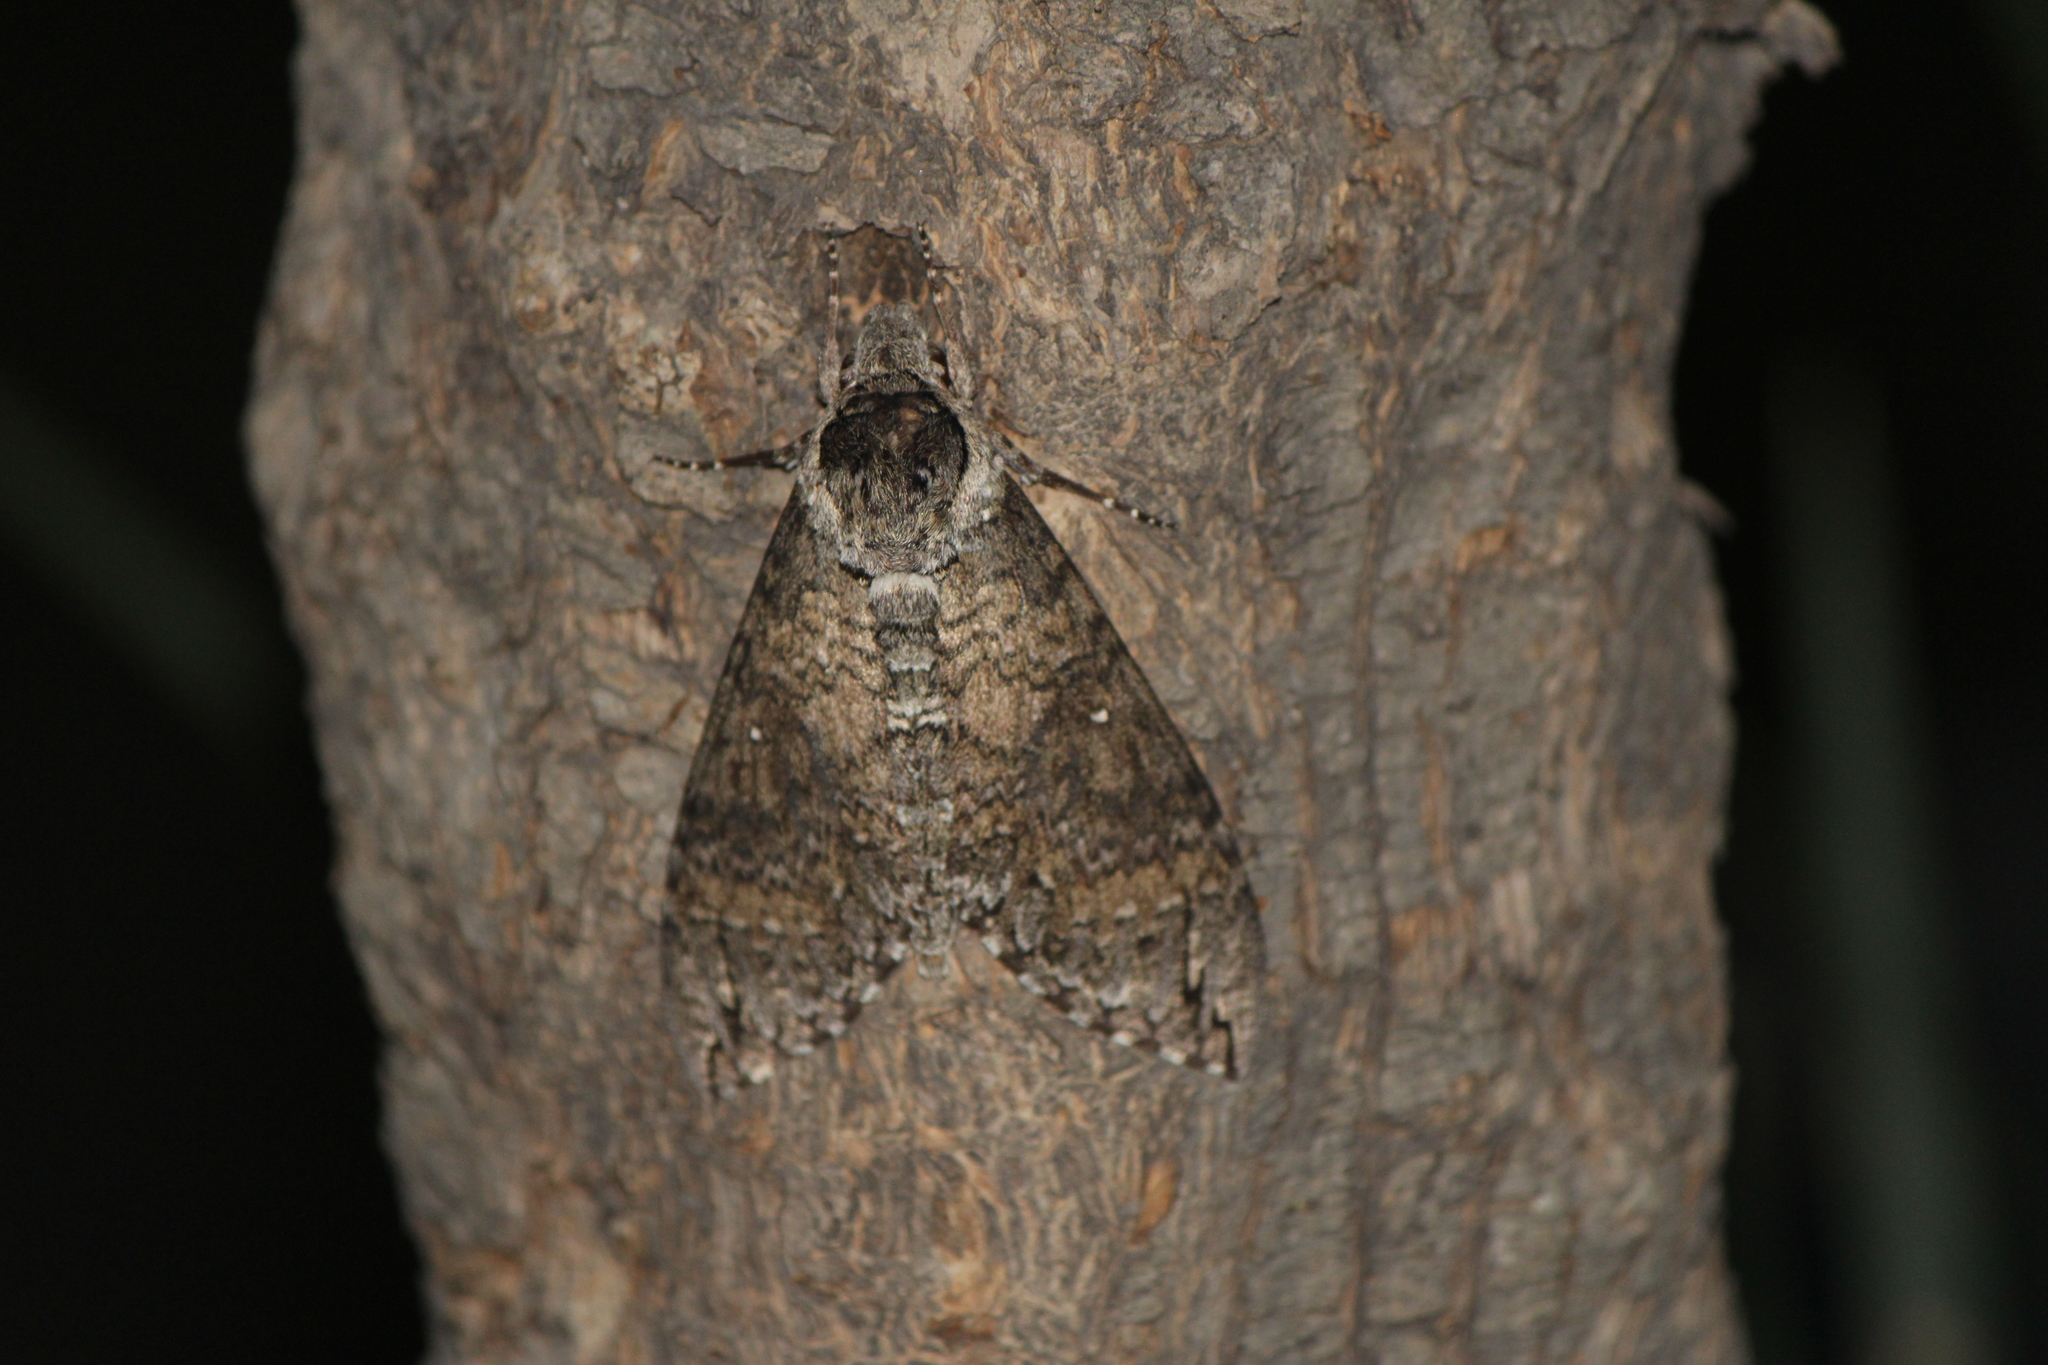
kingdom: Animalia
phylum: Arthropoda
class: Insecta
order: Lepidoptera
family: Sphingidae
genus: Manduca
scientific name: Manduca occulta
